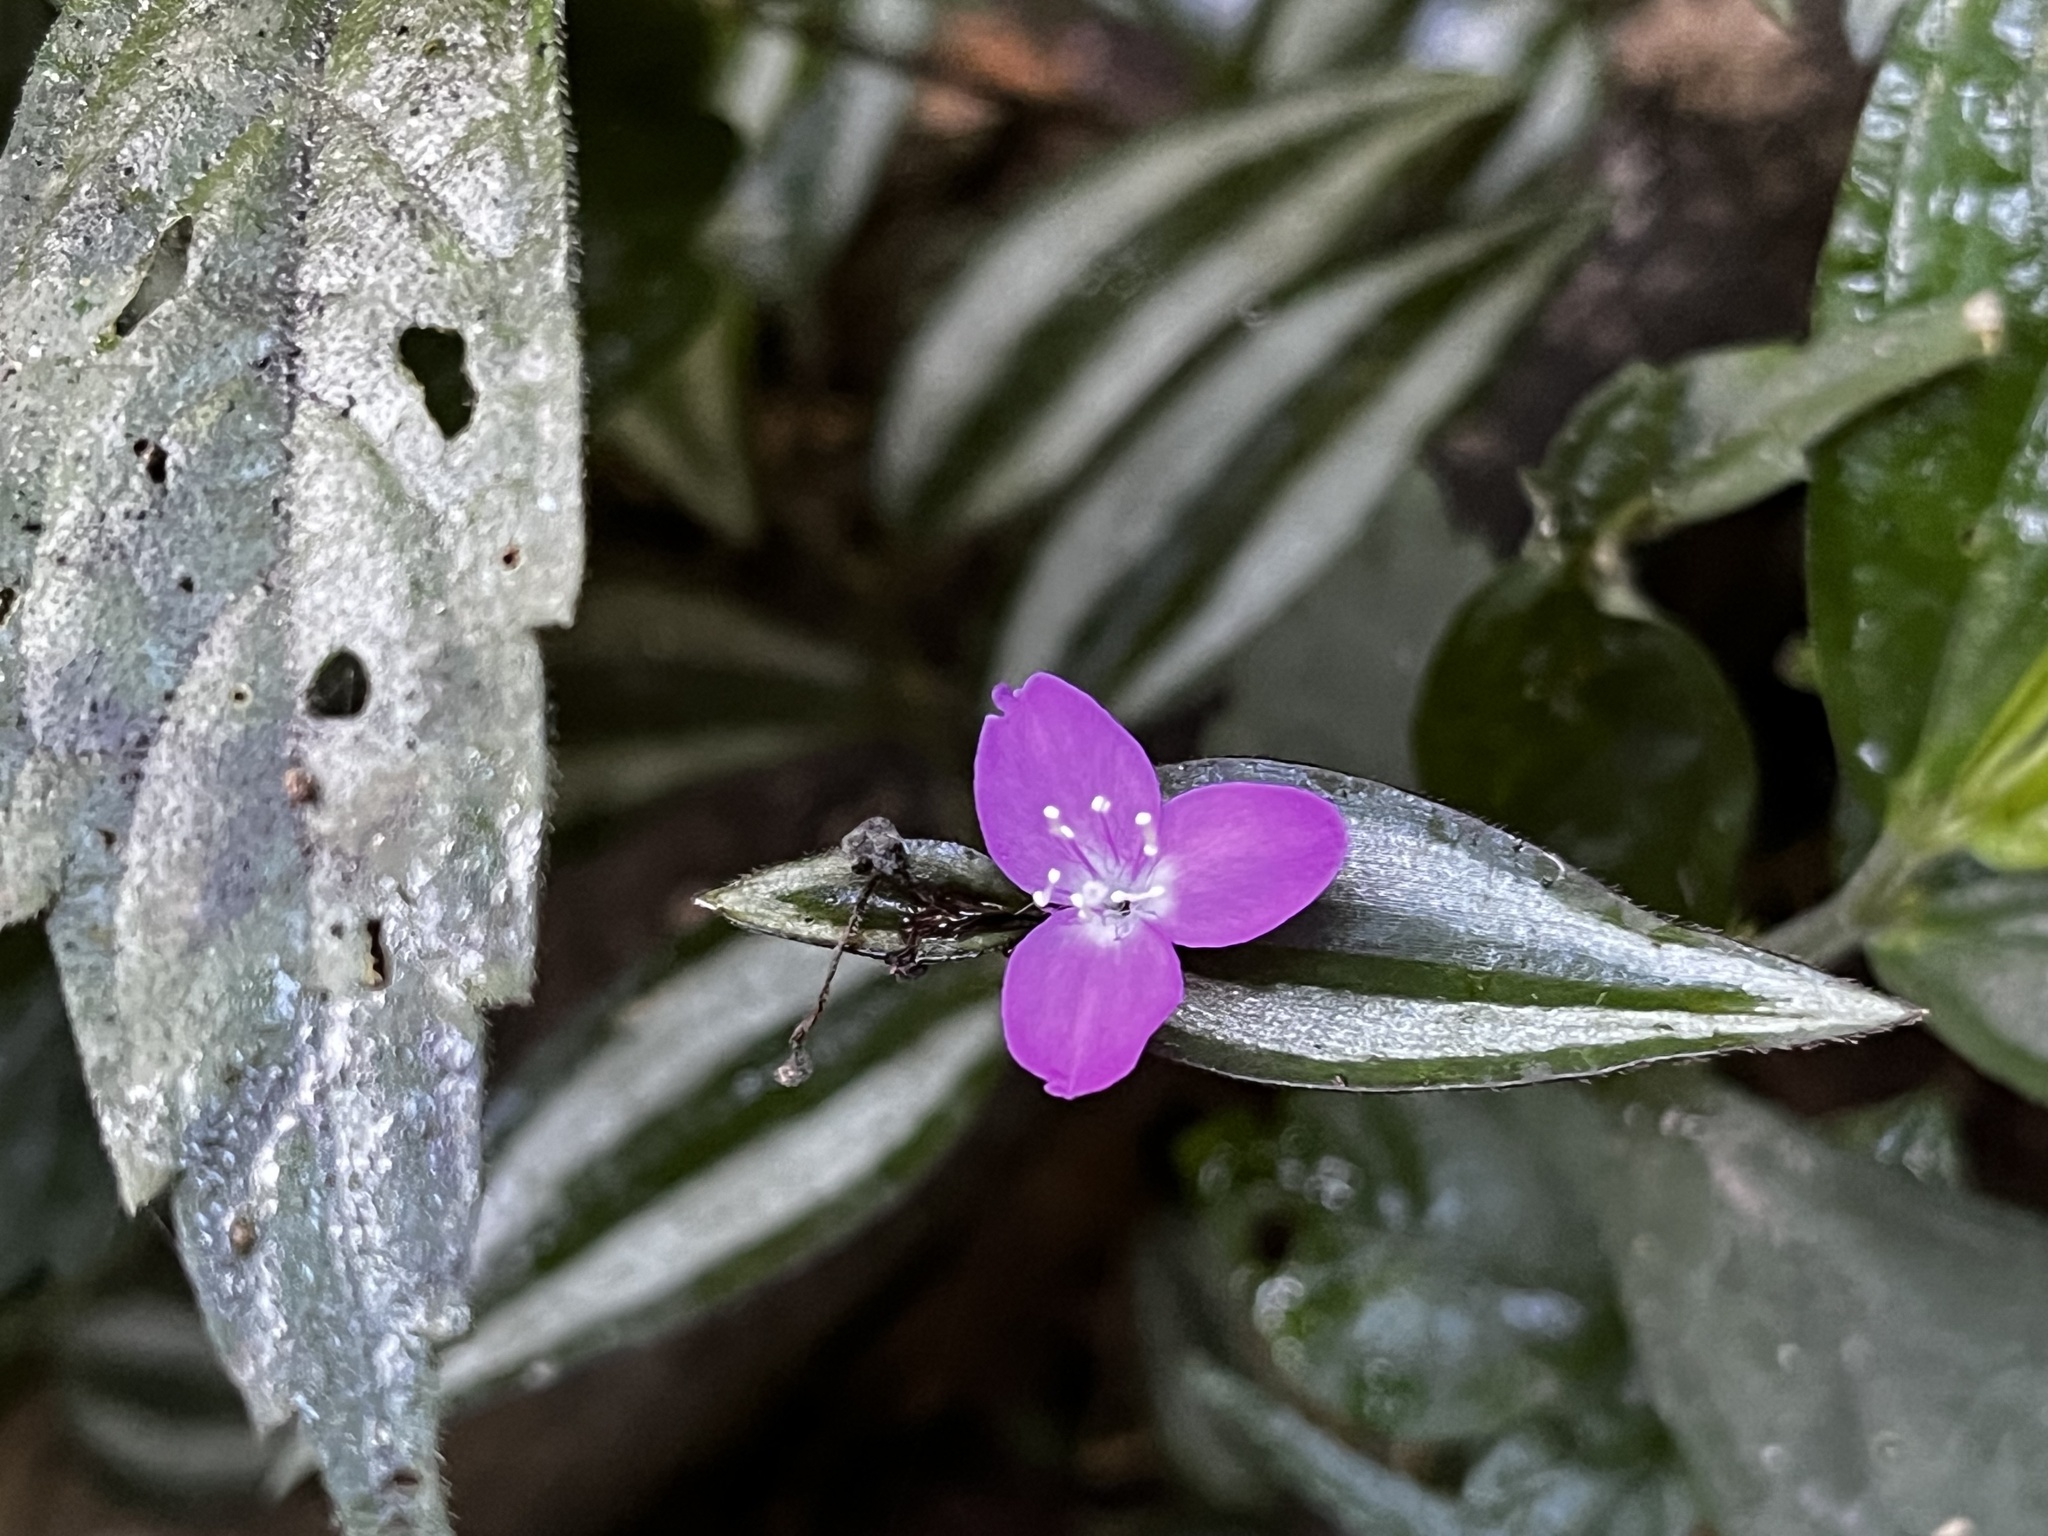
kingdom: Plantae
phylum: Tracheophyta
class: Liliopsida
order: Commelinales
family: Commelinaceae
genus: Tradescantia
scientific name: Tradescantia zebrina
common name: Inchplant
